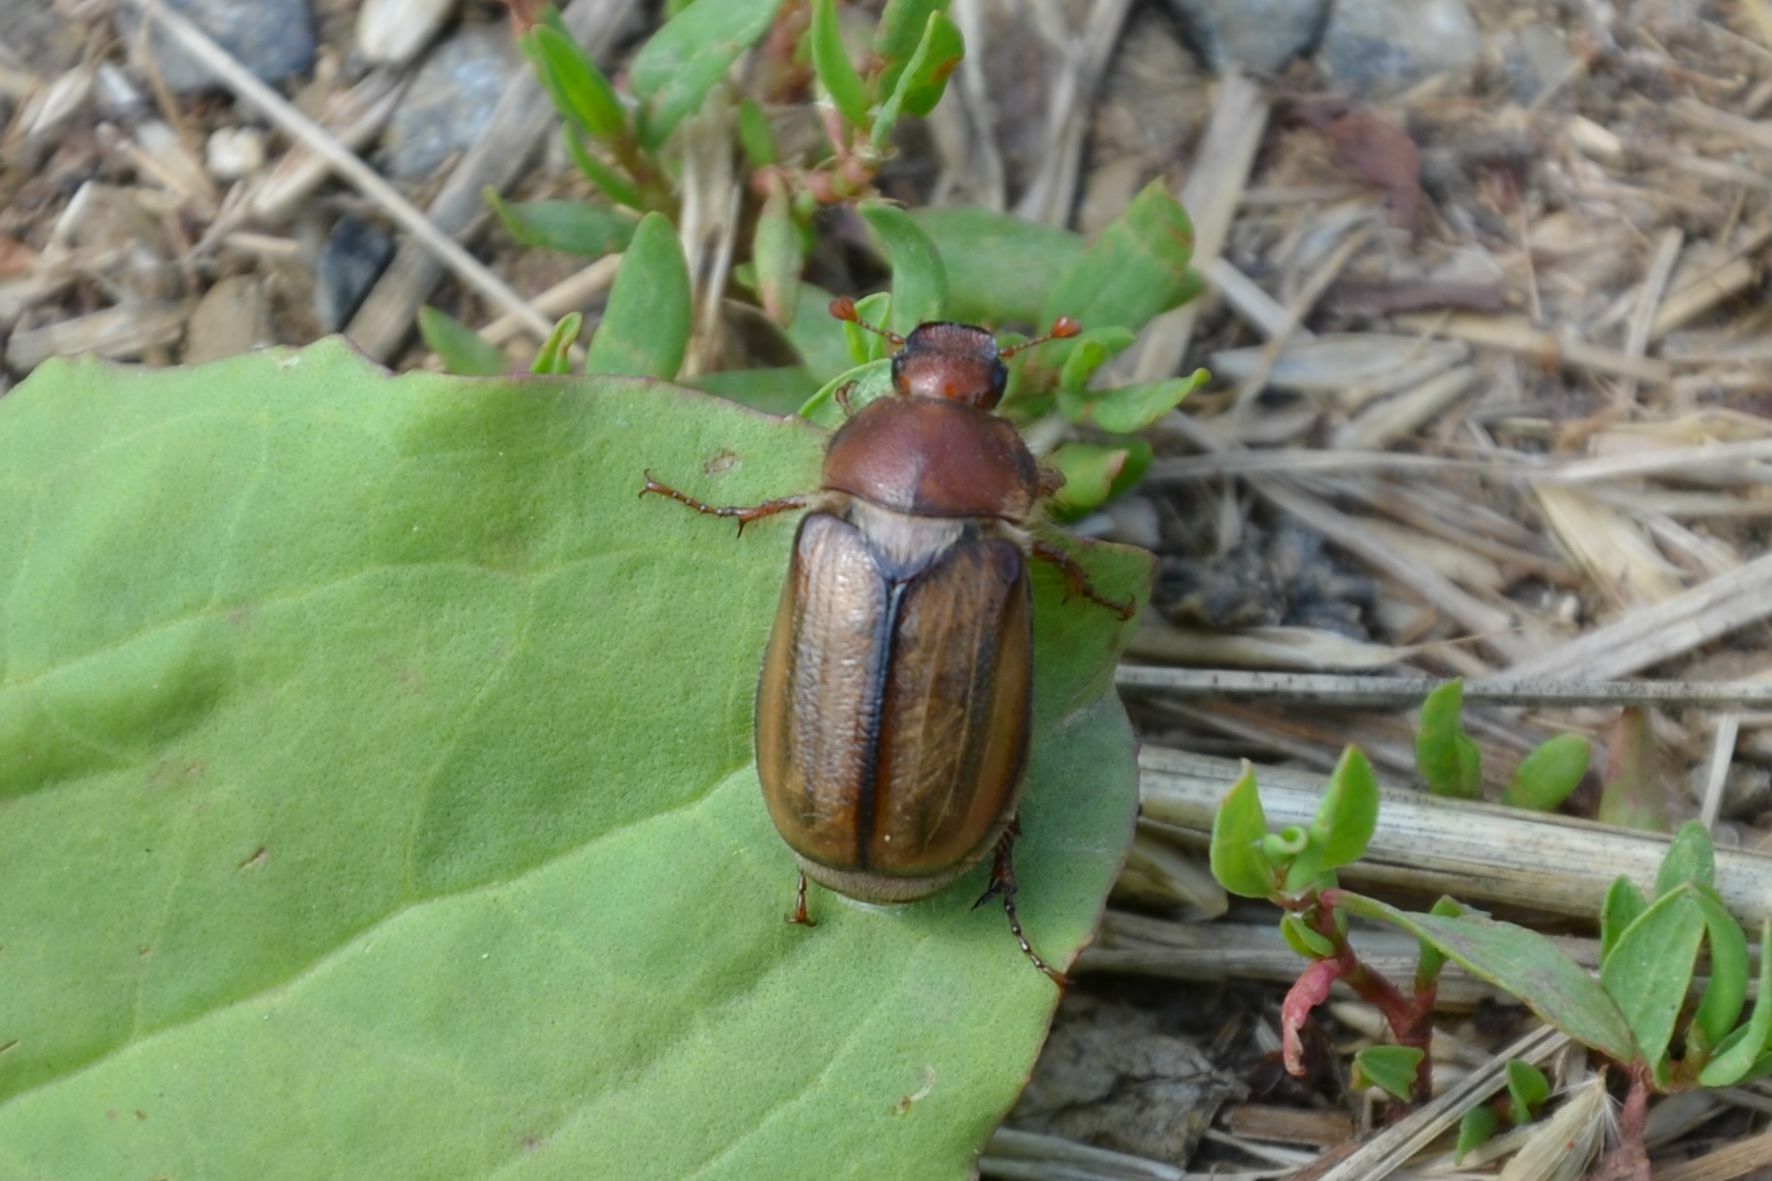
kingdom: Animalia
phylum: Arthropoda
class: Insecta
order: Coleoptera
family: Scarabaeidae
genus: Amphimallon
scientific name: Amphimallon atrum
